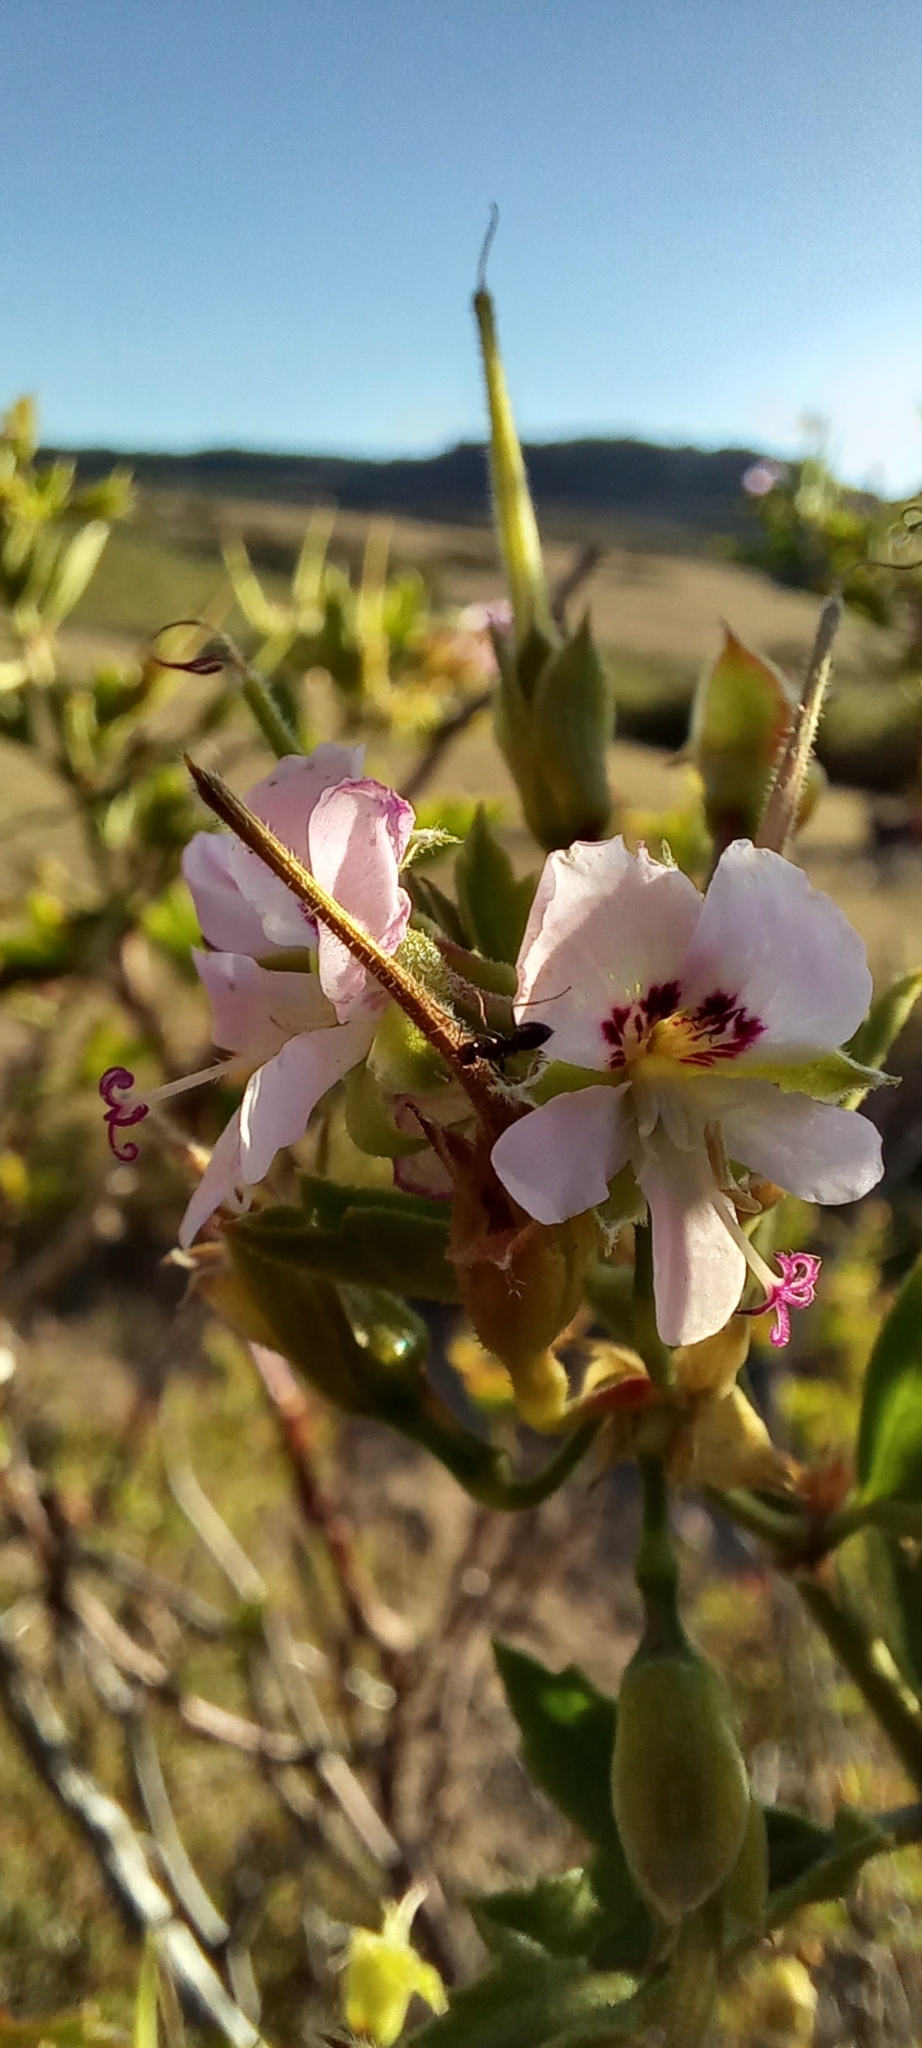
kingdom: Plantae
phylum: Tracheophyta
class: Magnoliopsida
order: Geraniales
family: Geraniaceae
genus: Pelargonium
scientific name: Pelargonium scabrum
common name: Apricot geranium
